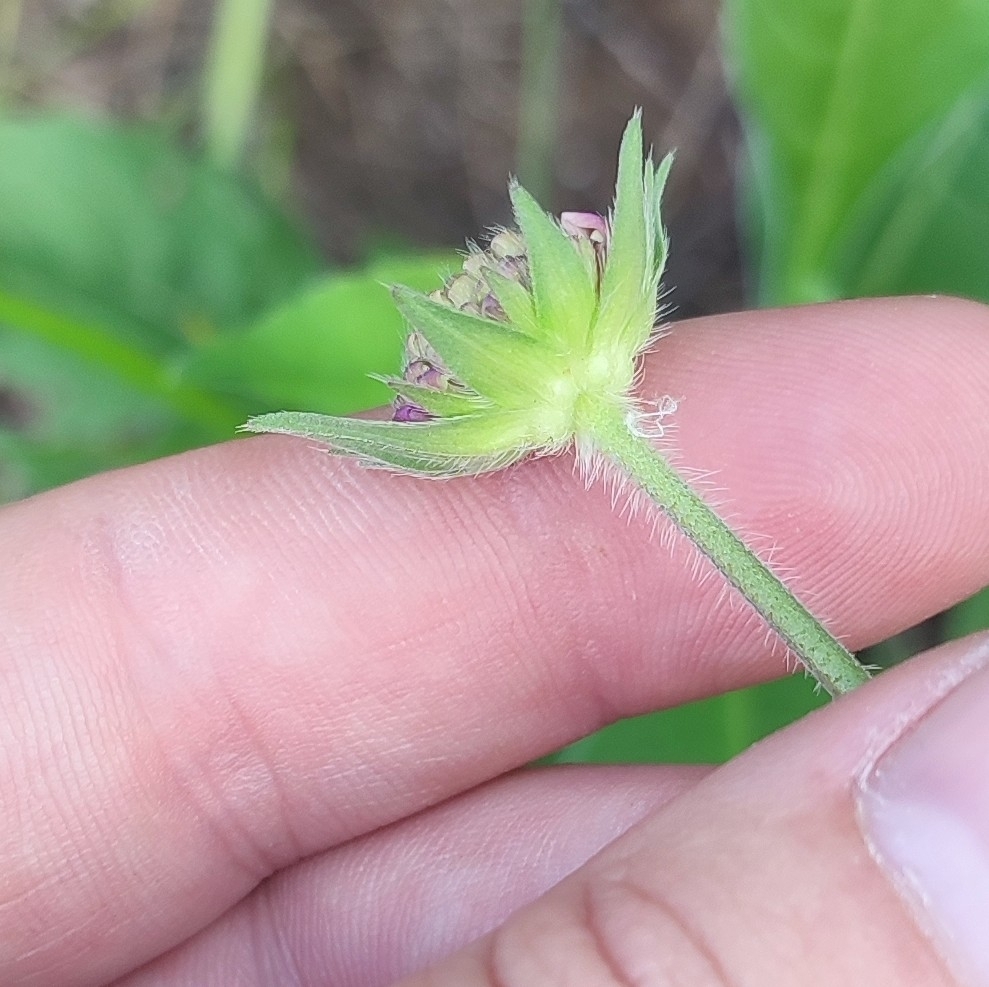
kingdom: Plantae
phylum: Tracheophyta
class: Magnoliopsida
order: Dipsacales
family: Caprifoliaceae
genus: Knautia
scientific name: Knautia arvensis
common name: Field scabiosa
